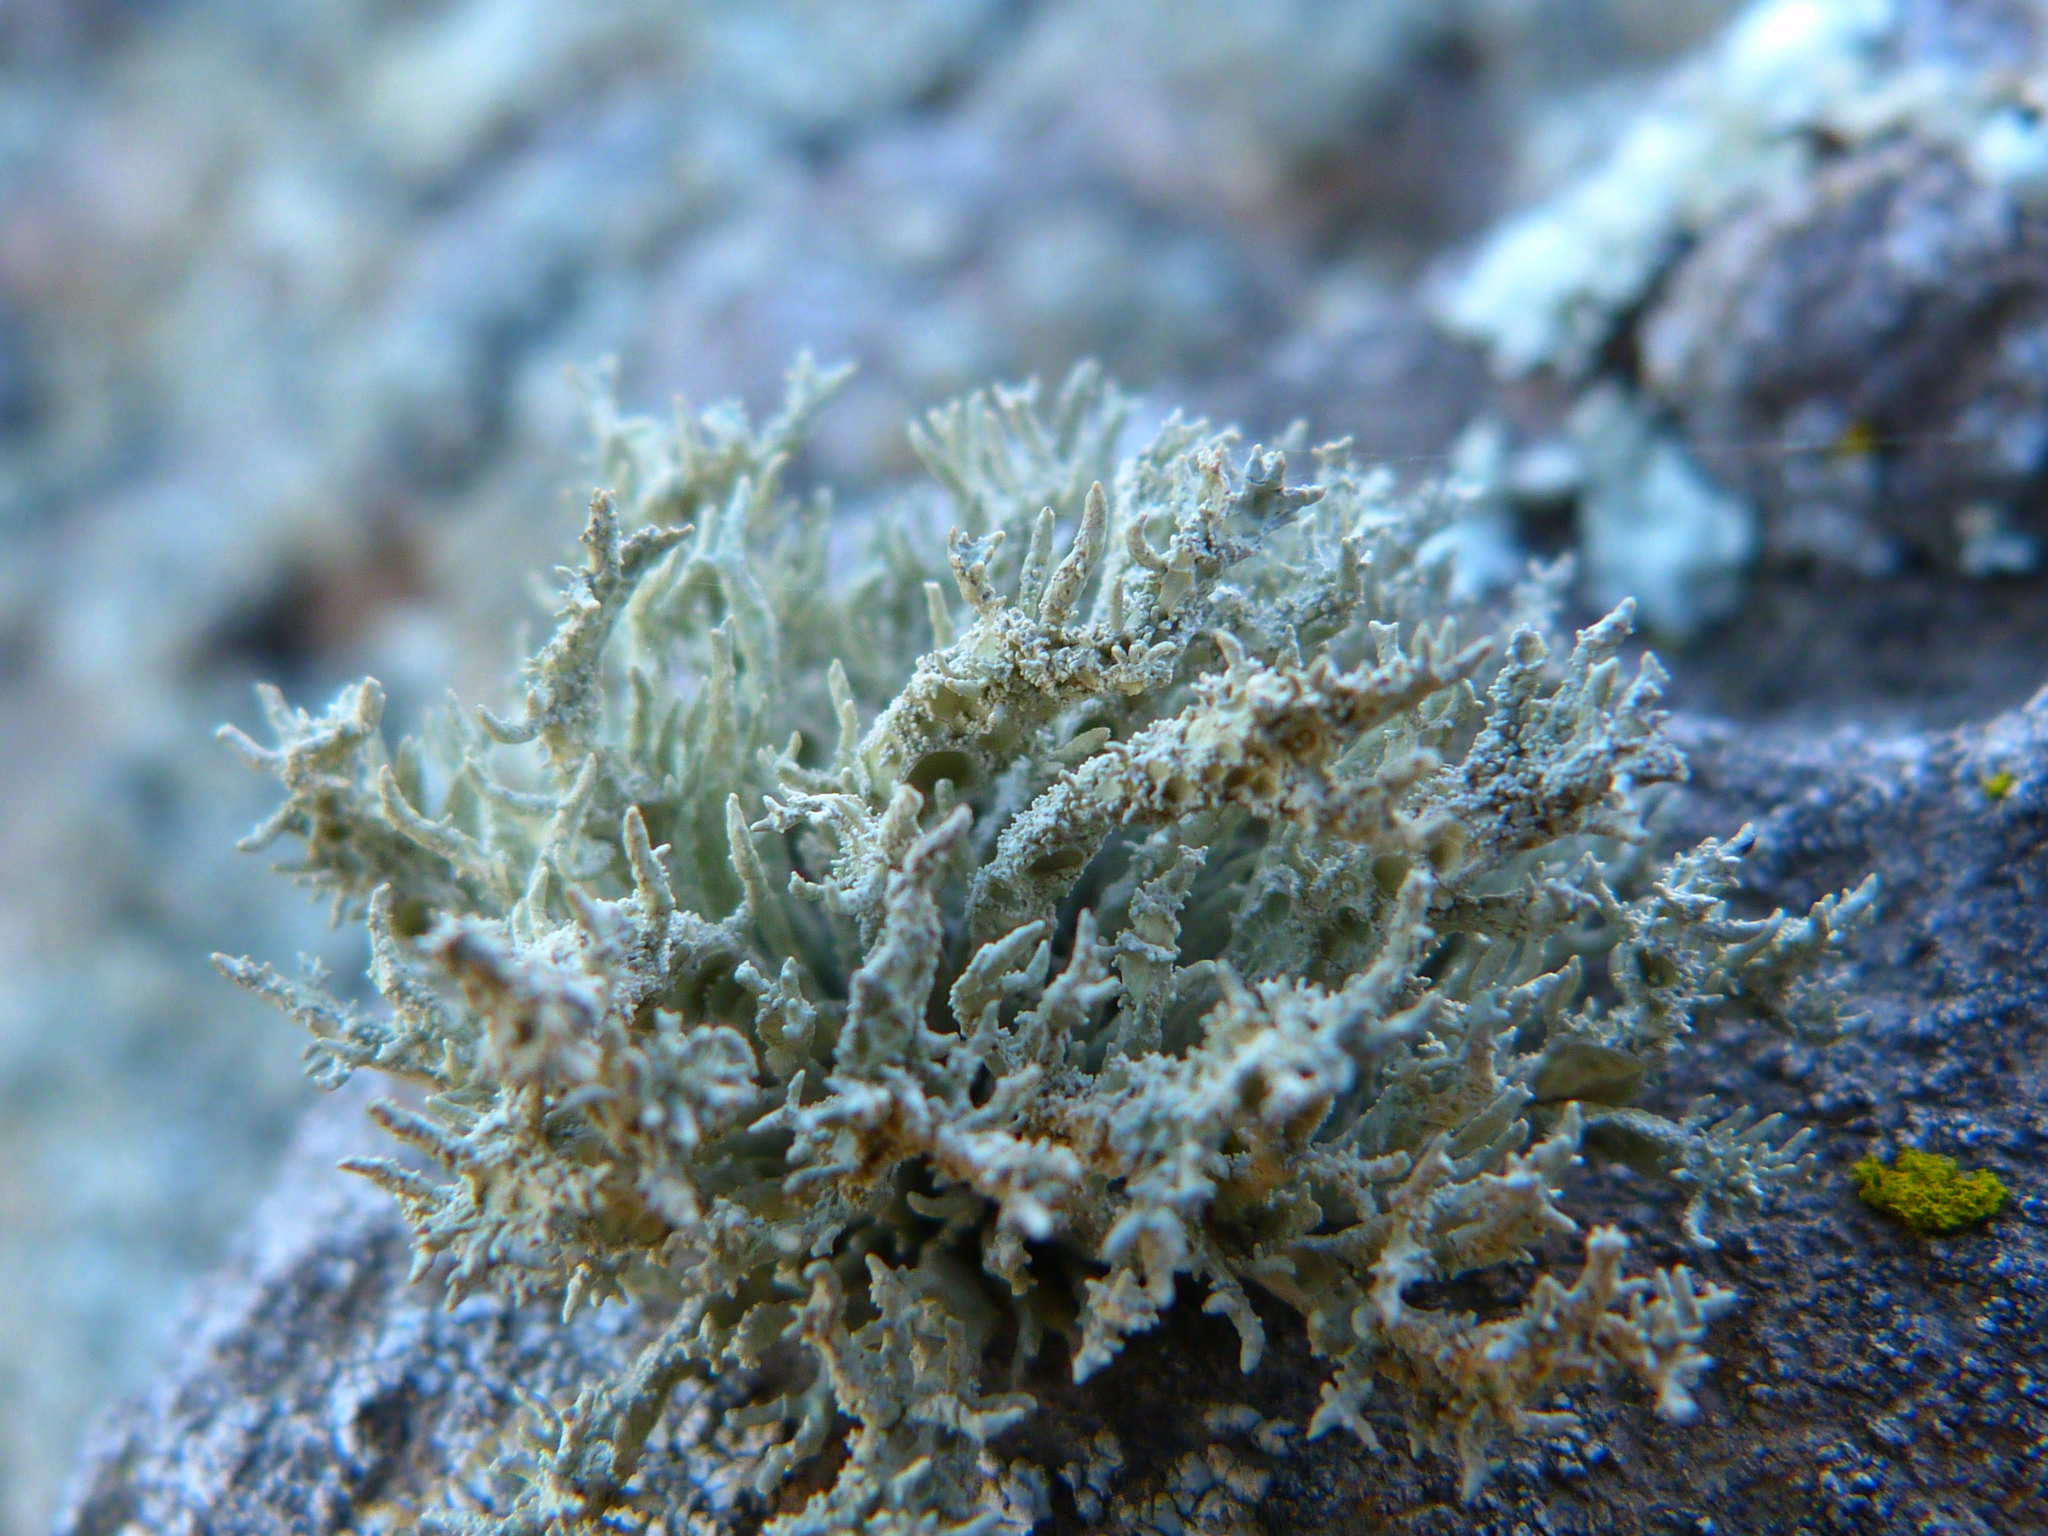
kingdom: Fungi
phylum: Ascomycota
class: Lecanoromycetes
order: Lecanorales
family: Ramalinaceae
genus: Niebla
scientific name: Niebla isidiaescens
